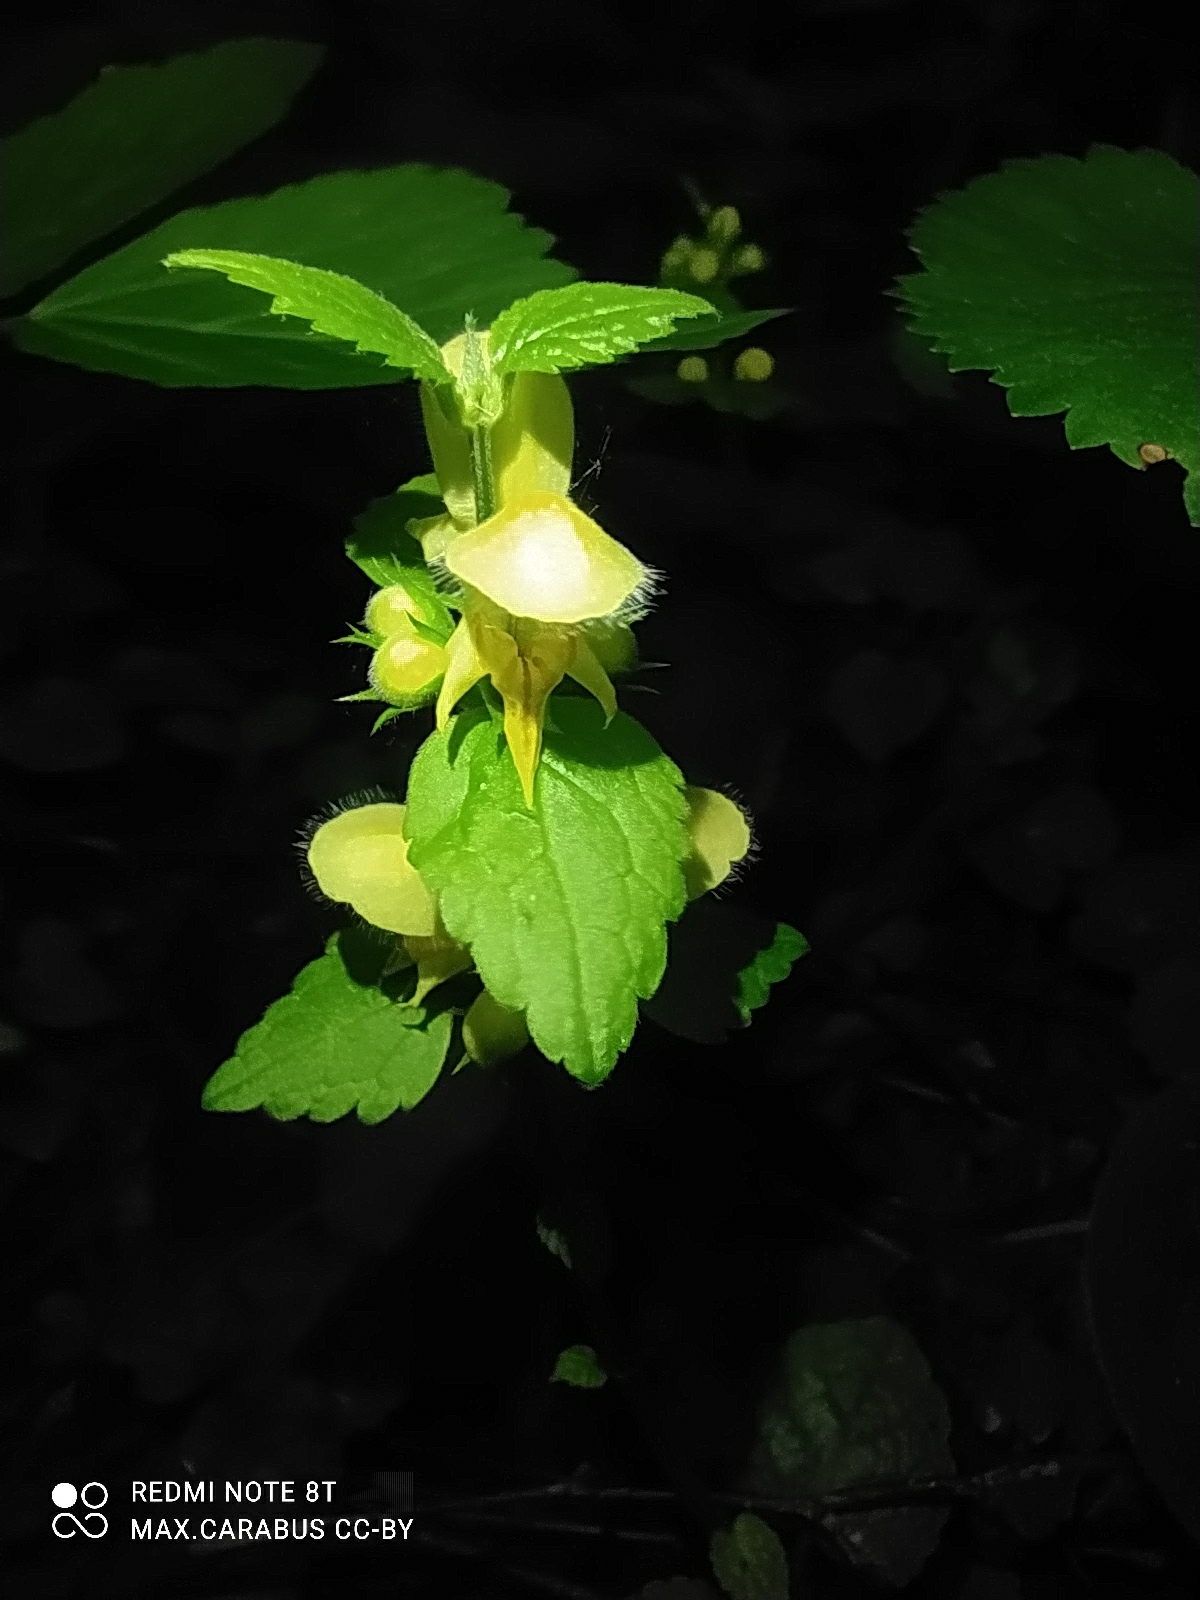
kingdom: Plantae
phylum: Tracheophyta
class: Magnoliopsida
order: Lamiales
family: Lamiaceae
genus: Lamium
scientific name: Lamium galeobdolon
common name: Yellow archangel
